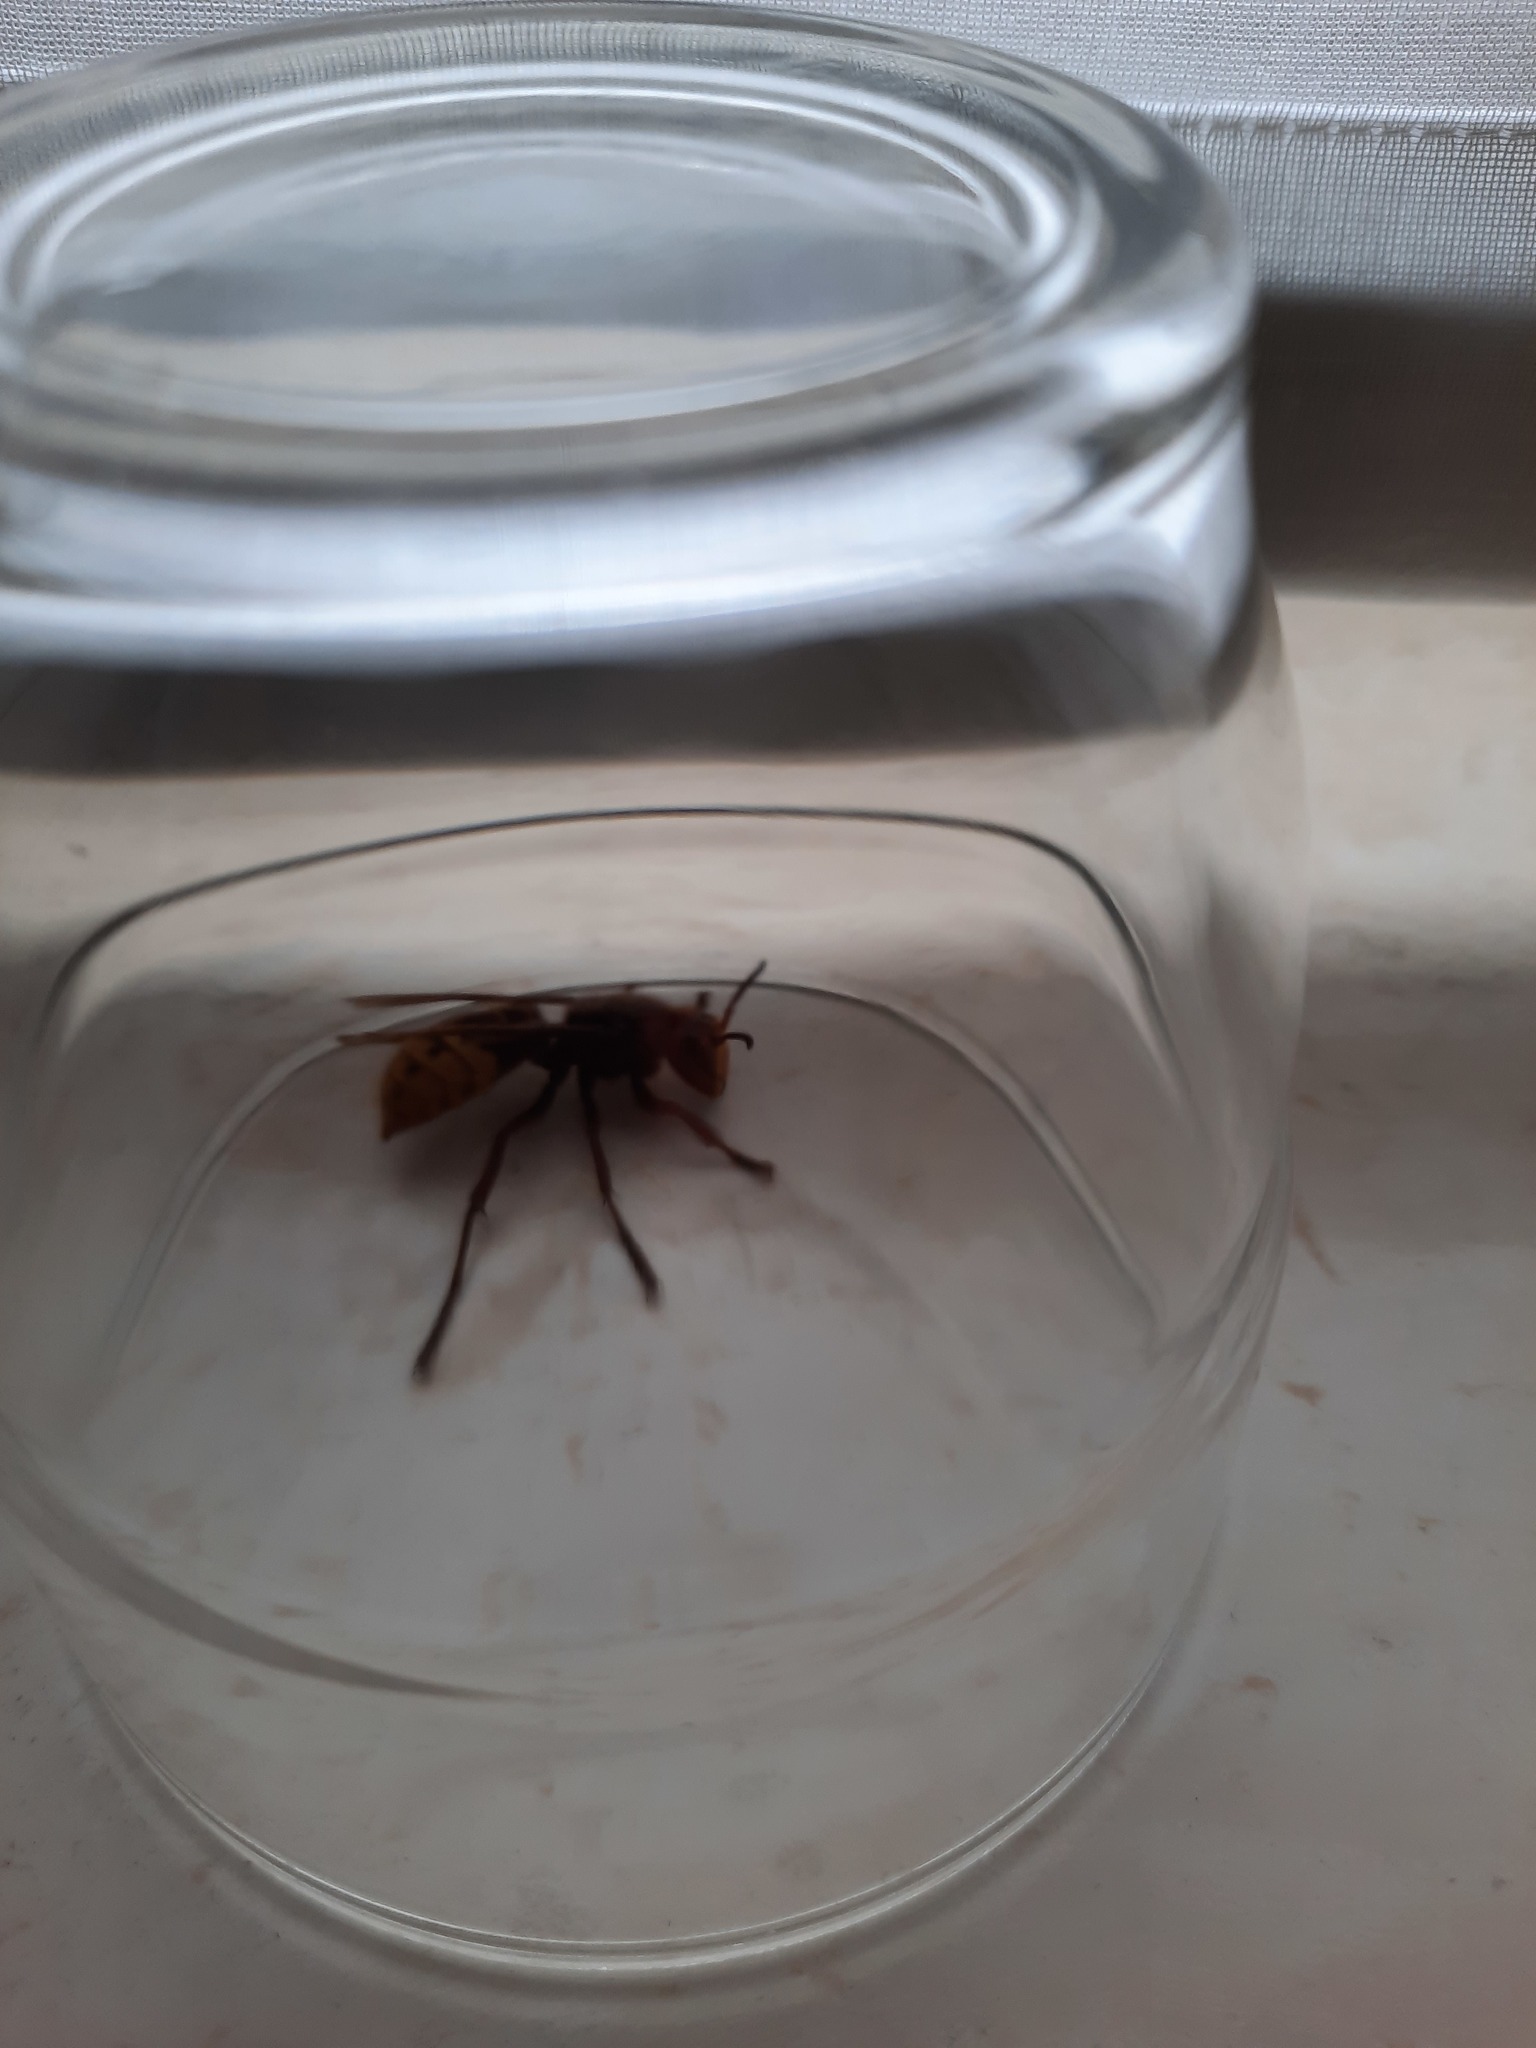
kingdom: Animalia
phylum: Arthropoda
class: Insecta
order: Hymenoptera
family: Vespidae
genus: Vespa
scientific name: Vespa crabro
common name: Hornet
